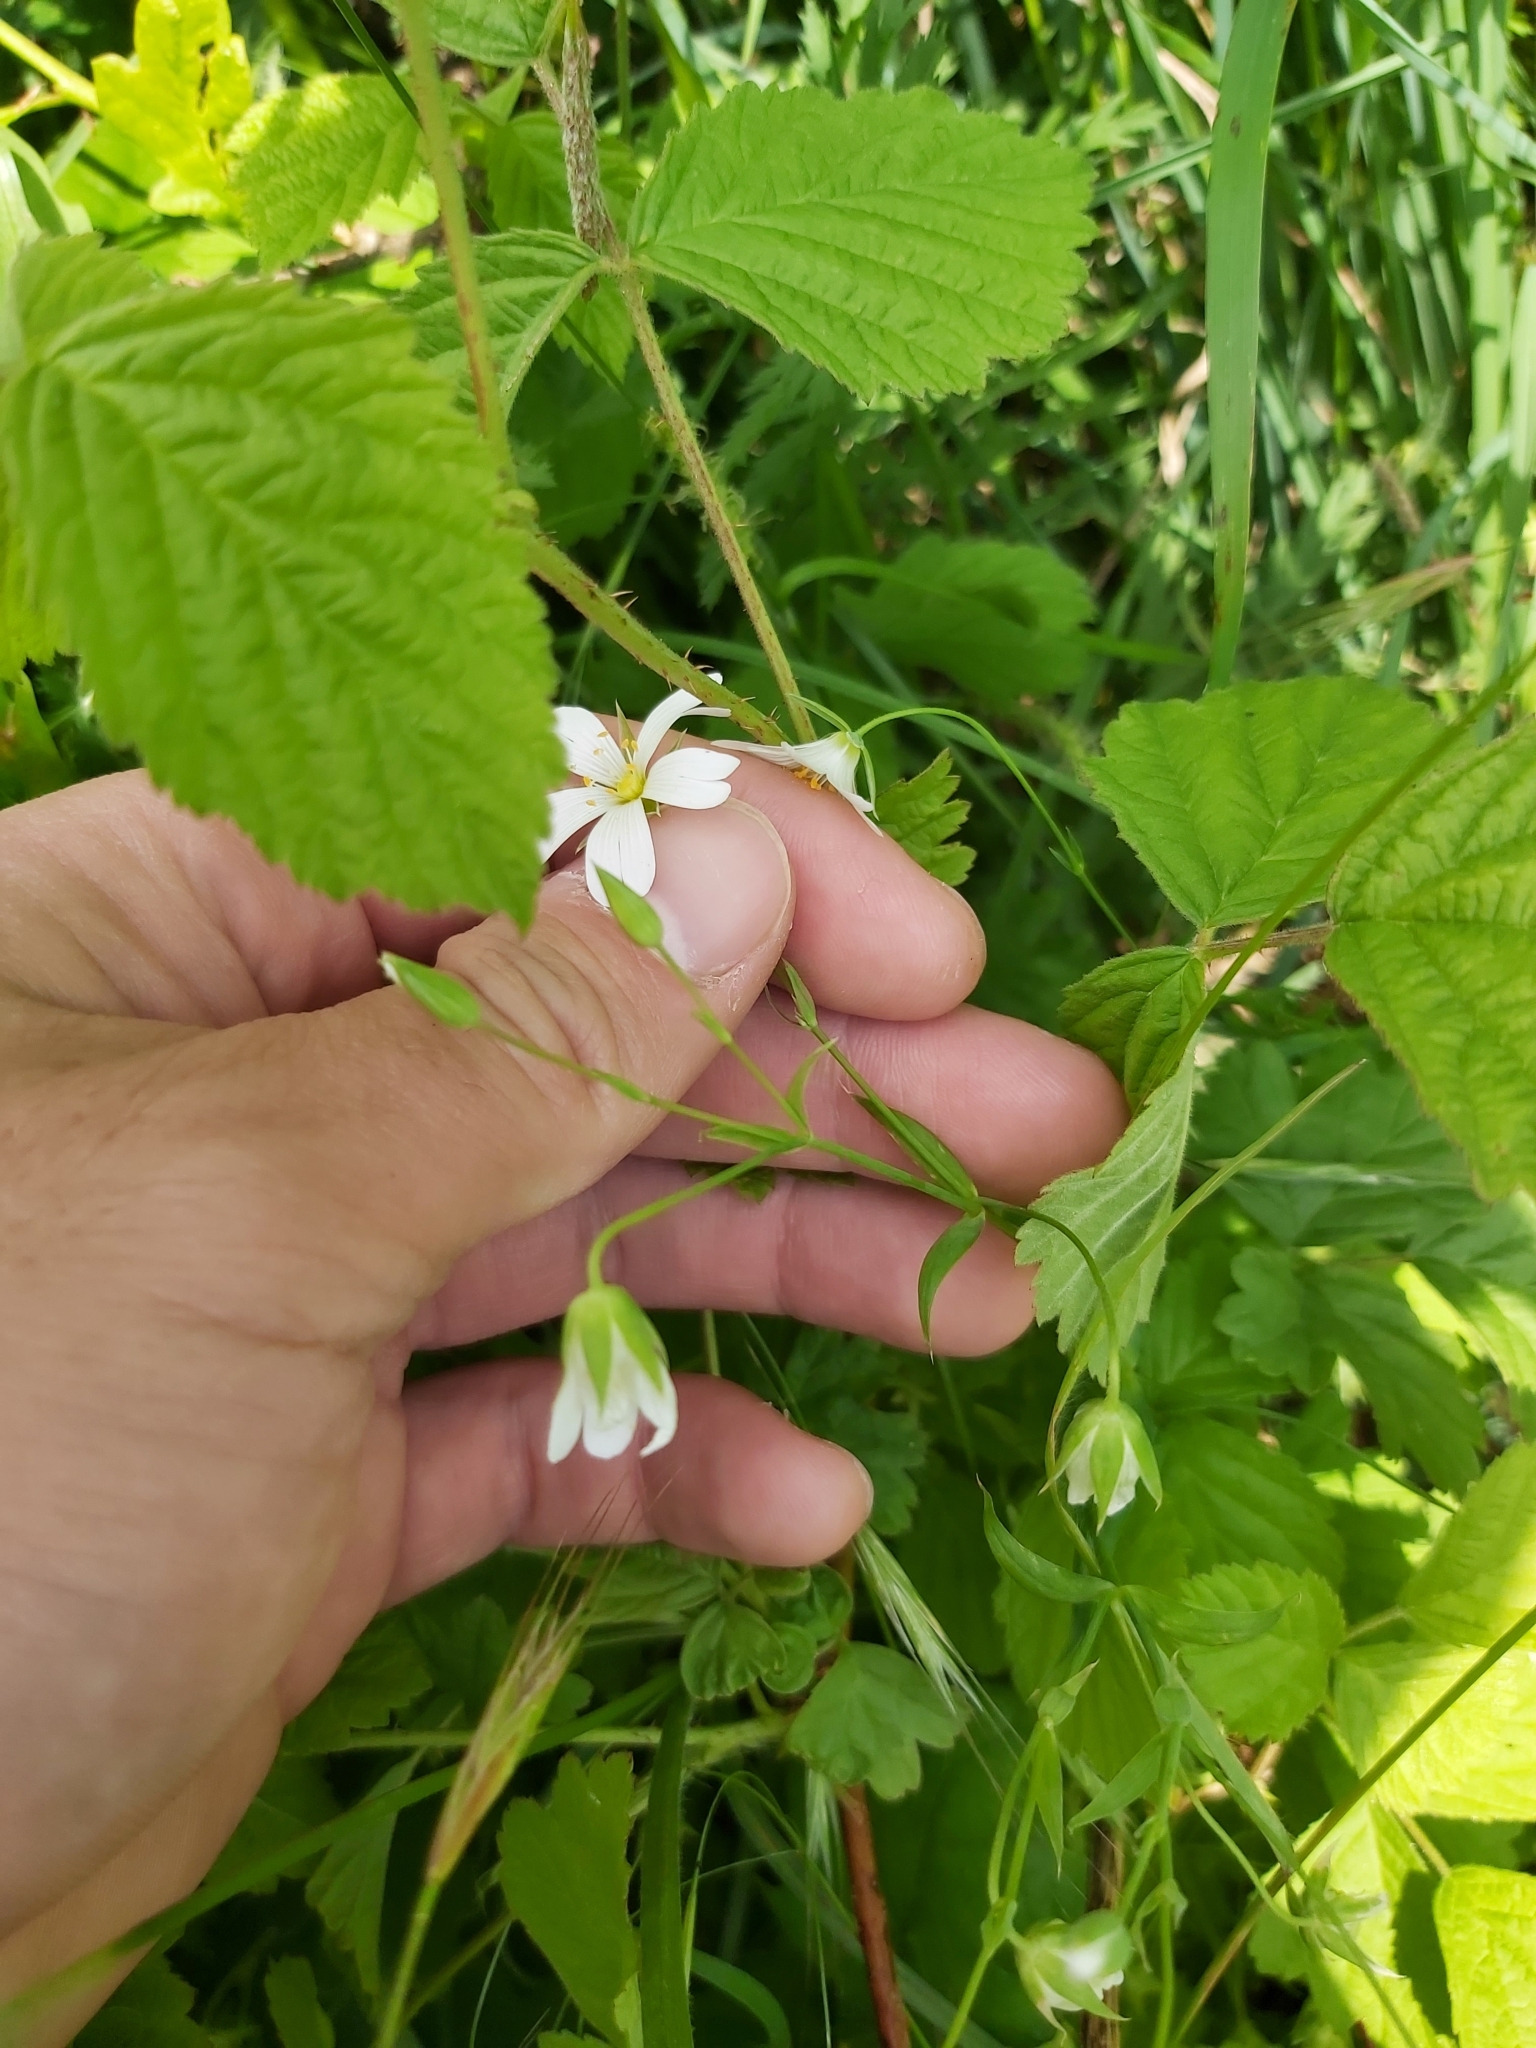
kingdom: Plantae
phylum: Tracheophyta
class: Magnoliopsida
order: Caryophyllales
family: Caryophyllaceae
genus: Rabelera
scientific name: Rabelera holostea
